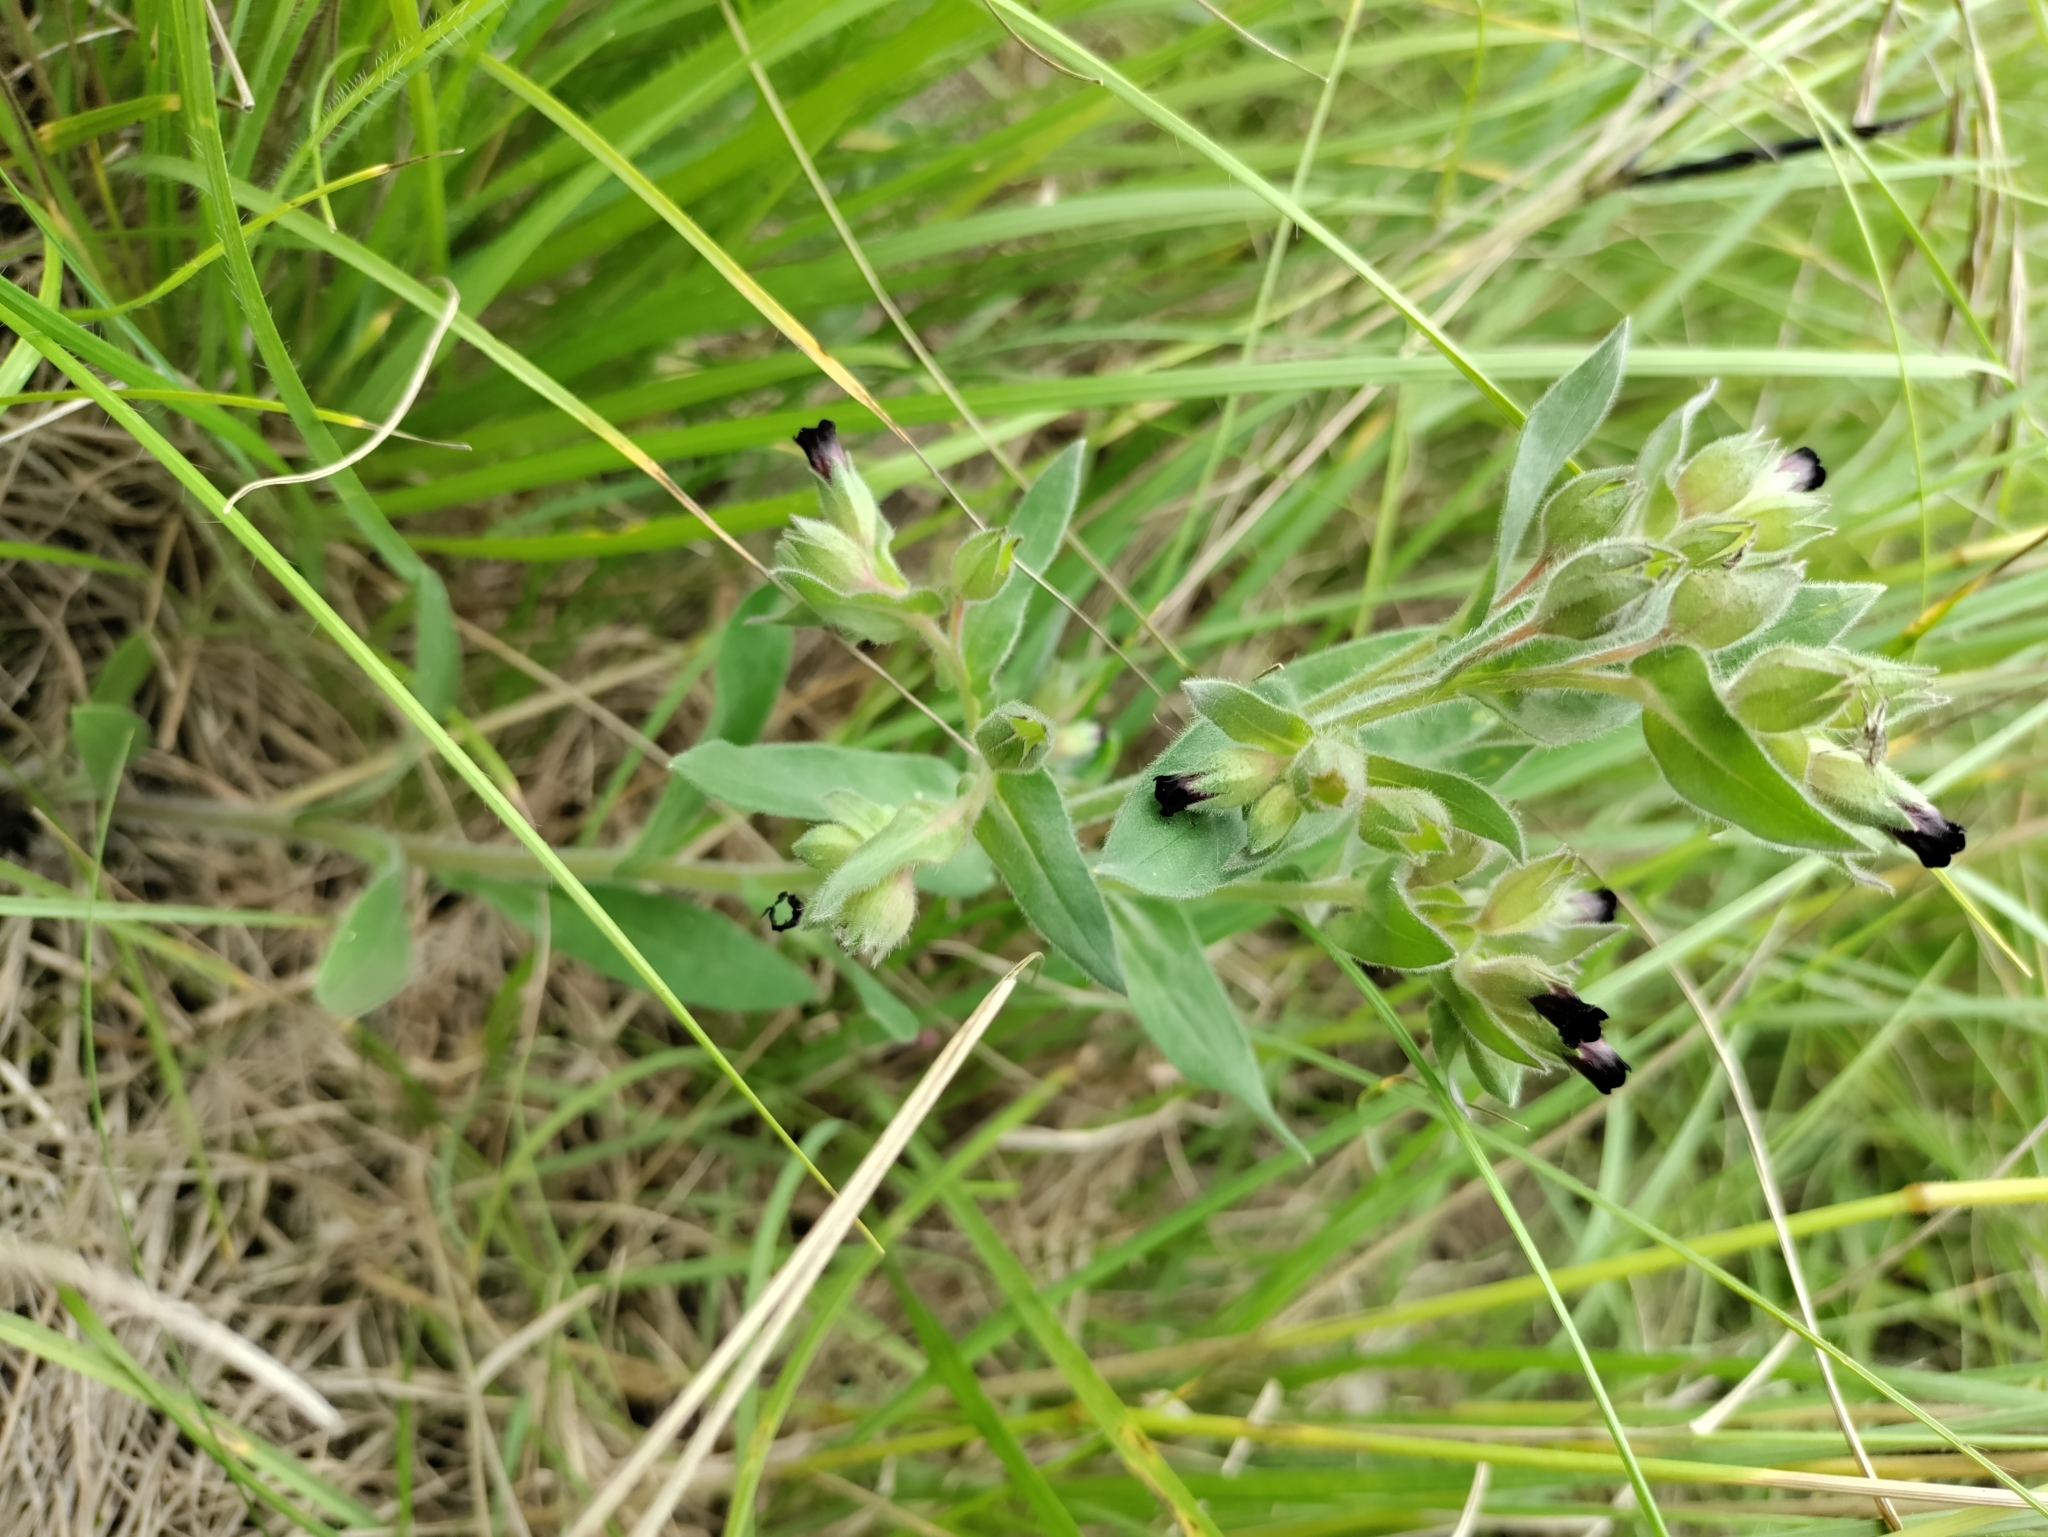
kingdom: Plantae
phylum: Tracheophyta
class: Magnoliopsida
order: Boraginales
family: Boraginaceae
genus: Nonea
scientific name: Nonea pulla
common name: Brown nonea
